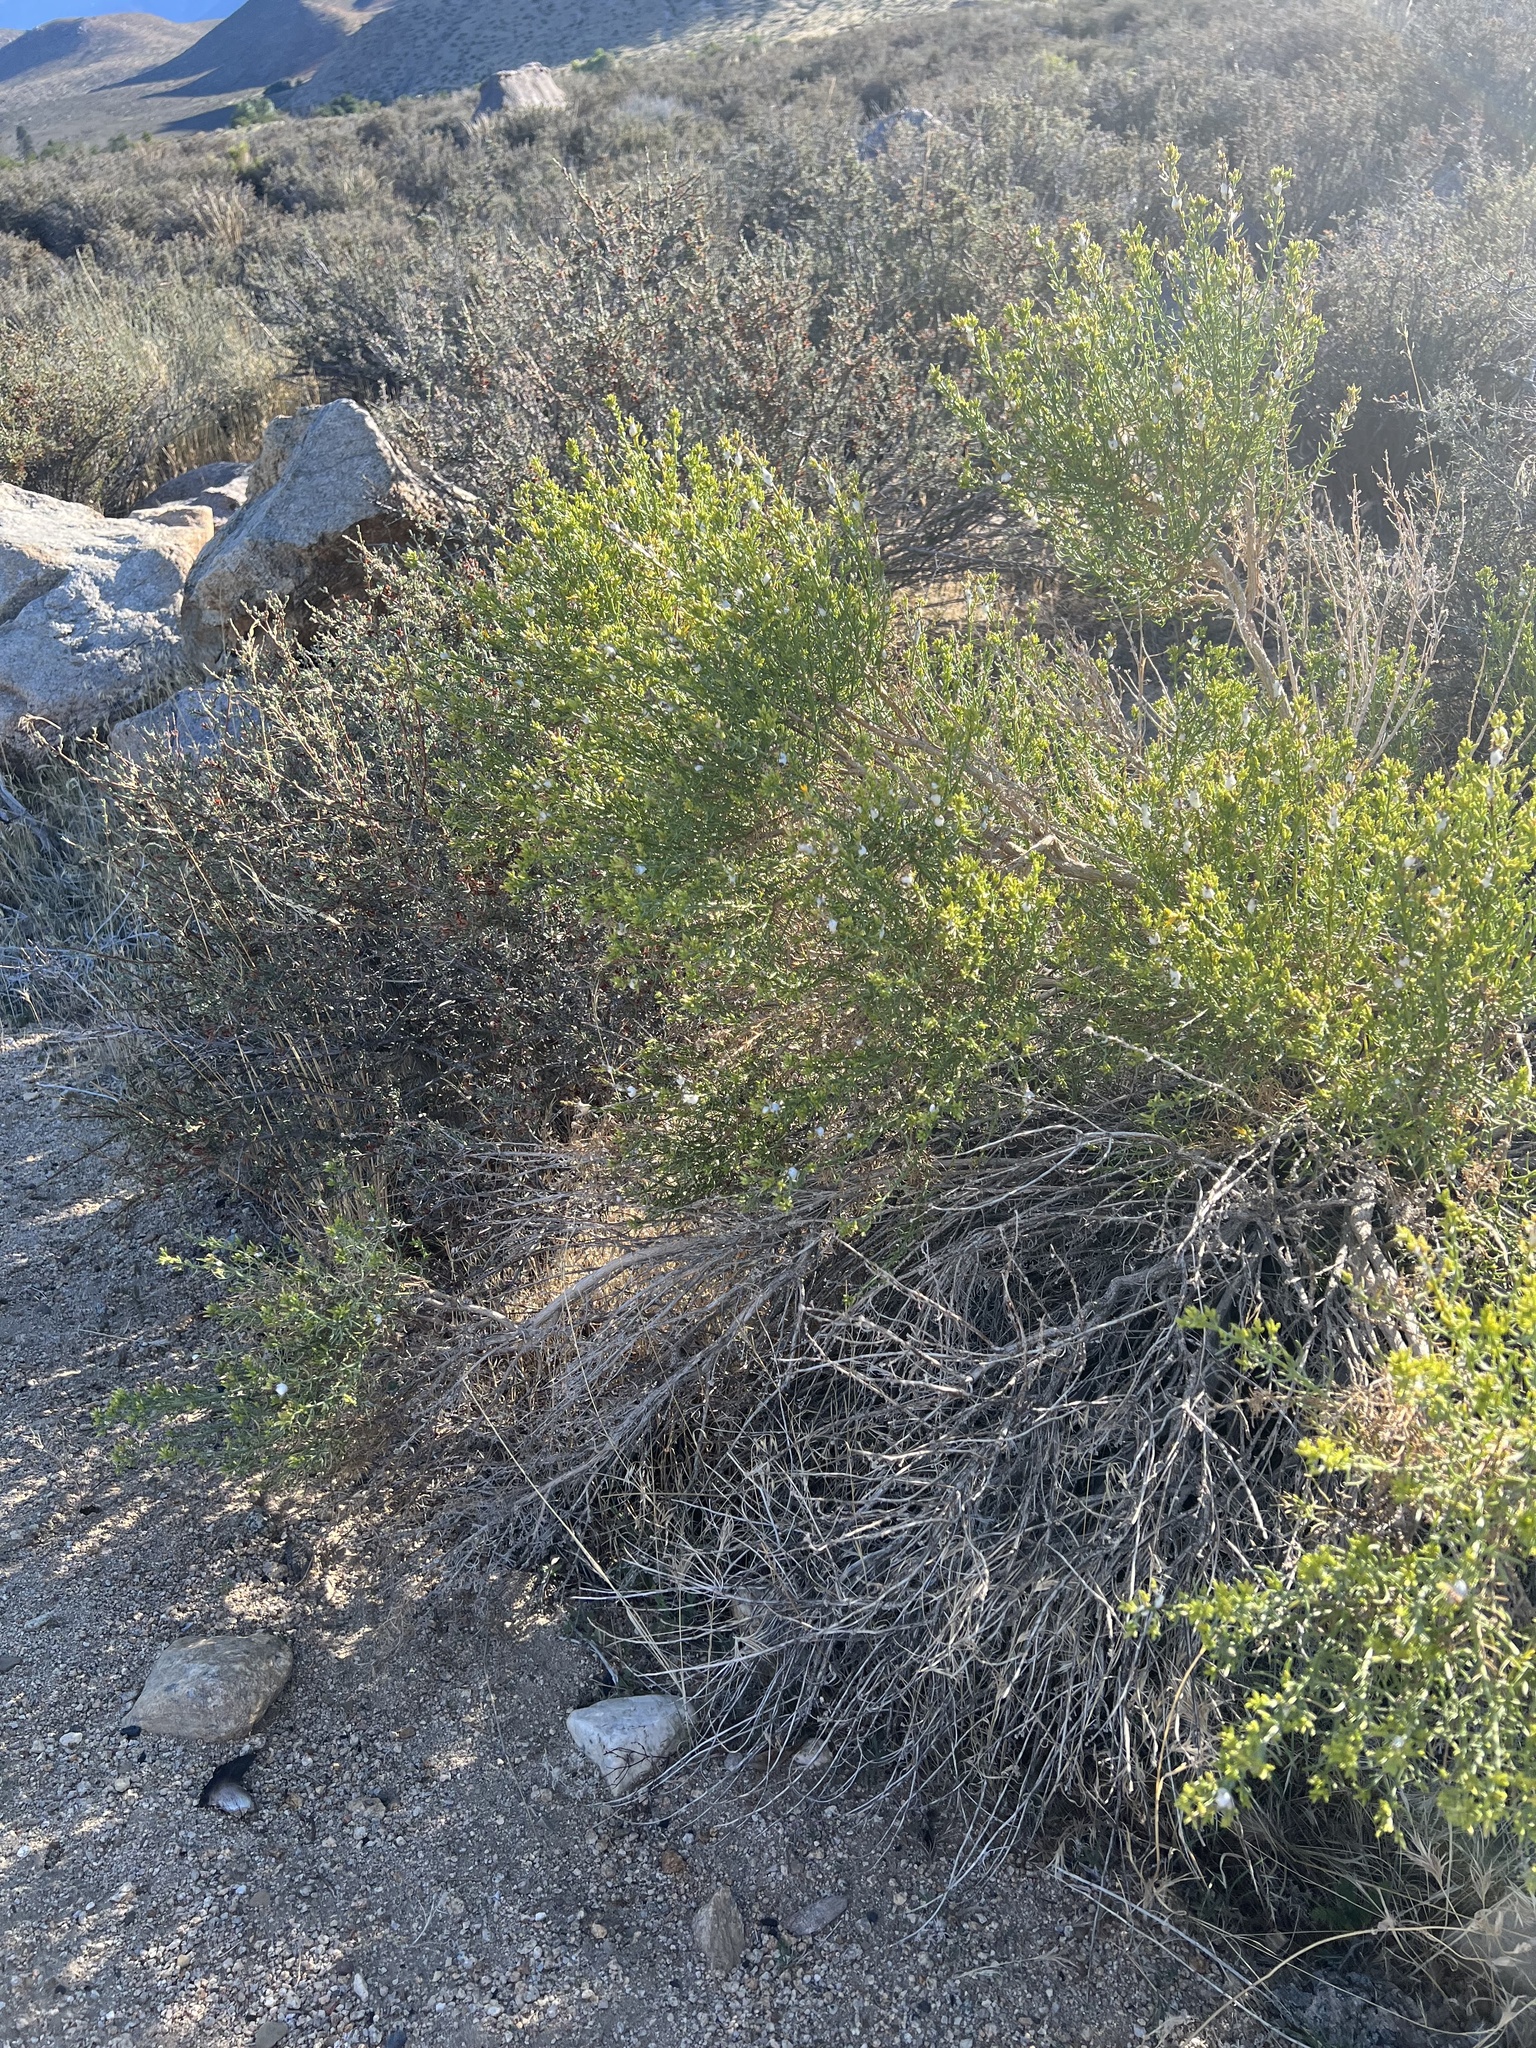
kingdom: Plantae
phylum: Tracheophyta
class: Magnoliopsida
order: Asterales
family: Asteraceae
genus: Ericameria
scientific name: Ericameria teretifolia
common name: Round-leaf rabbitbrush
